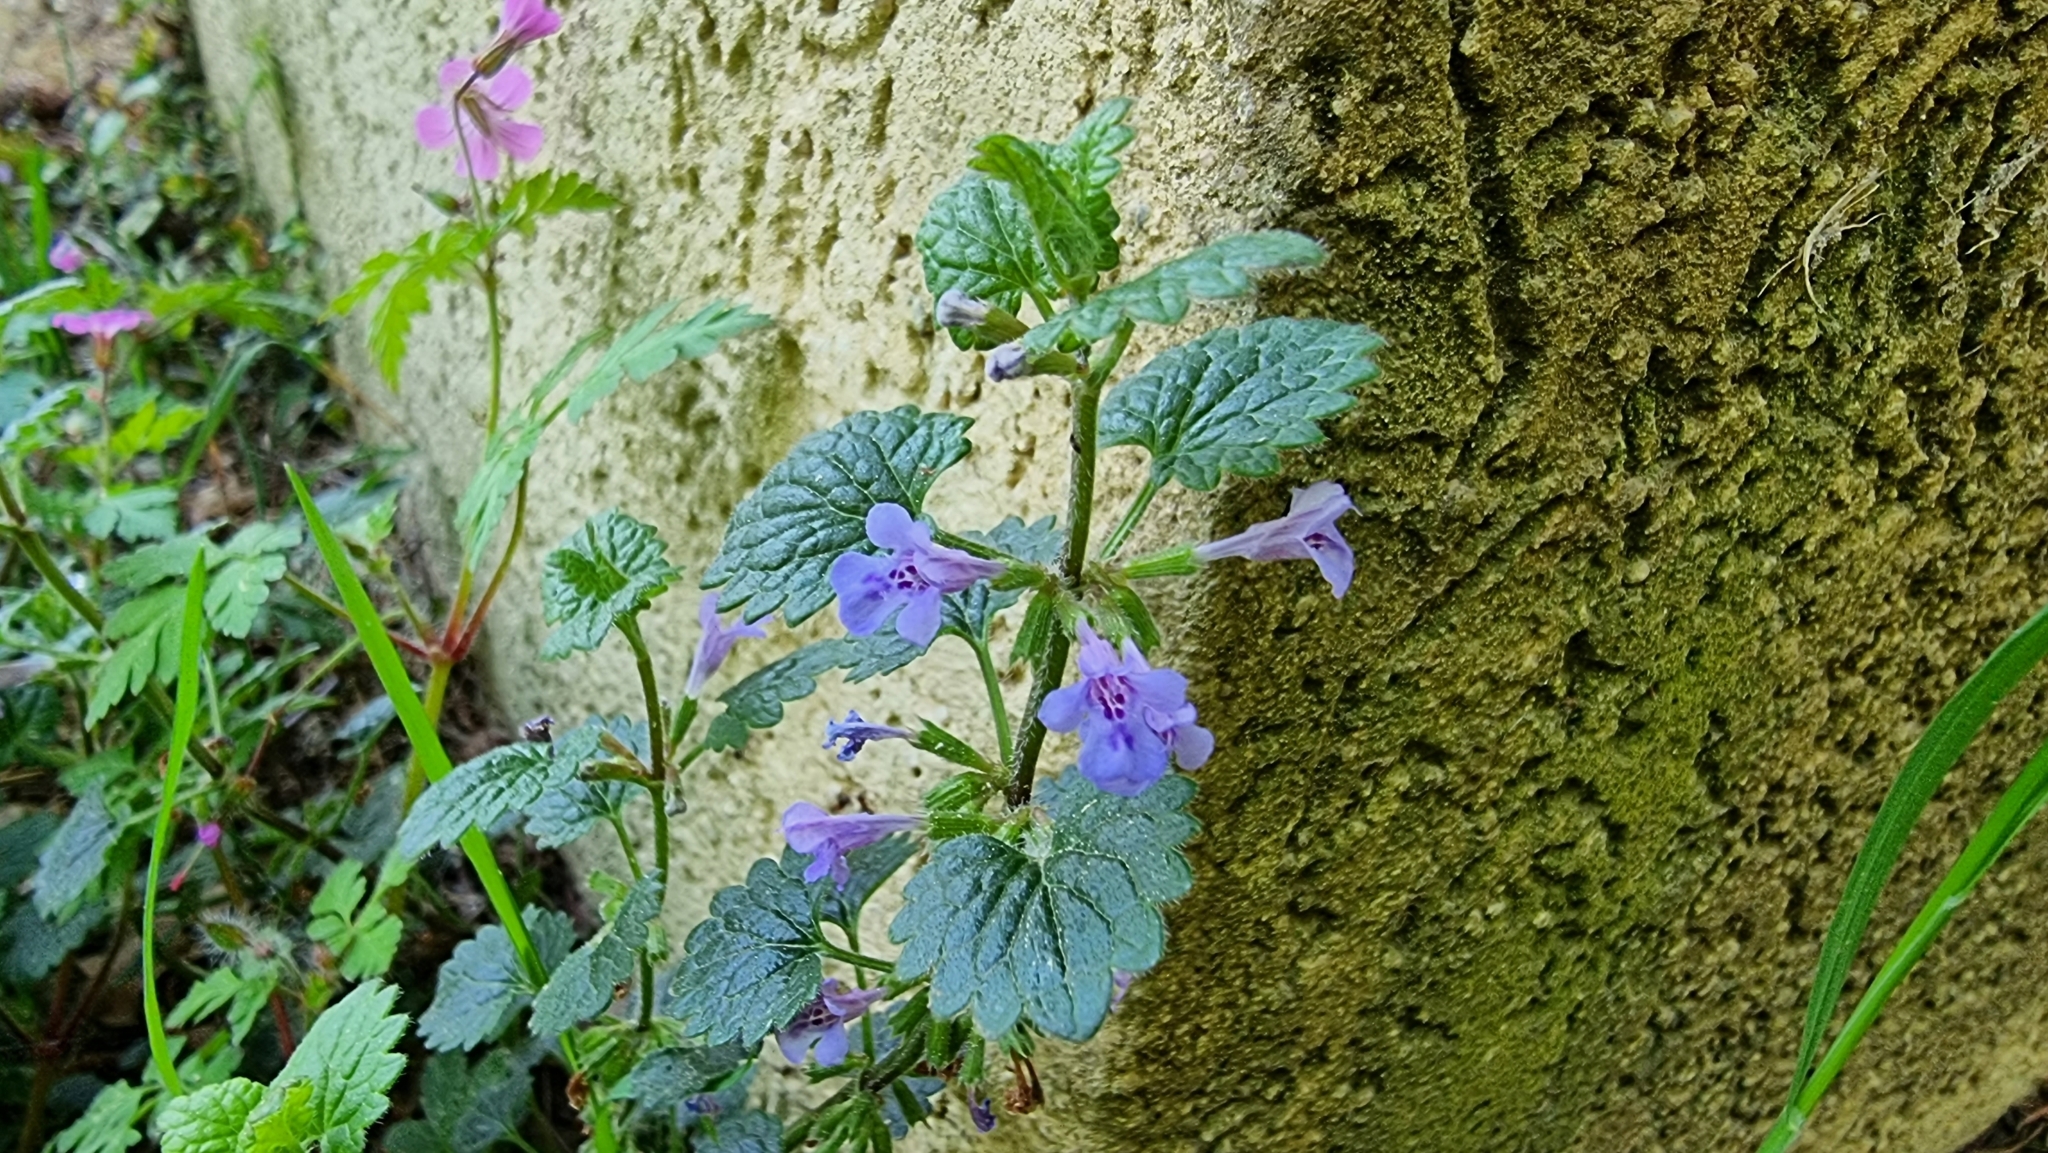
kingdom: Plantae
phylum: Tracheophyta
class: Magnoliopsida
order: Lamiales
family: Lamiaceae
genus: Glechoma
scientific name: Glechoma hederacea
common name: Ground ivy
